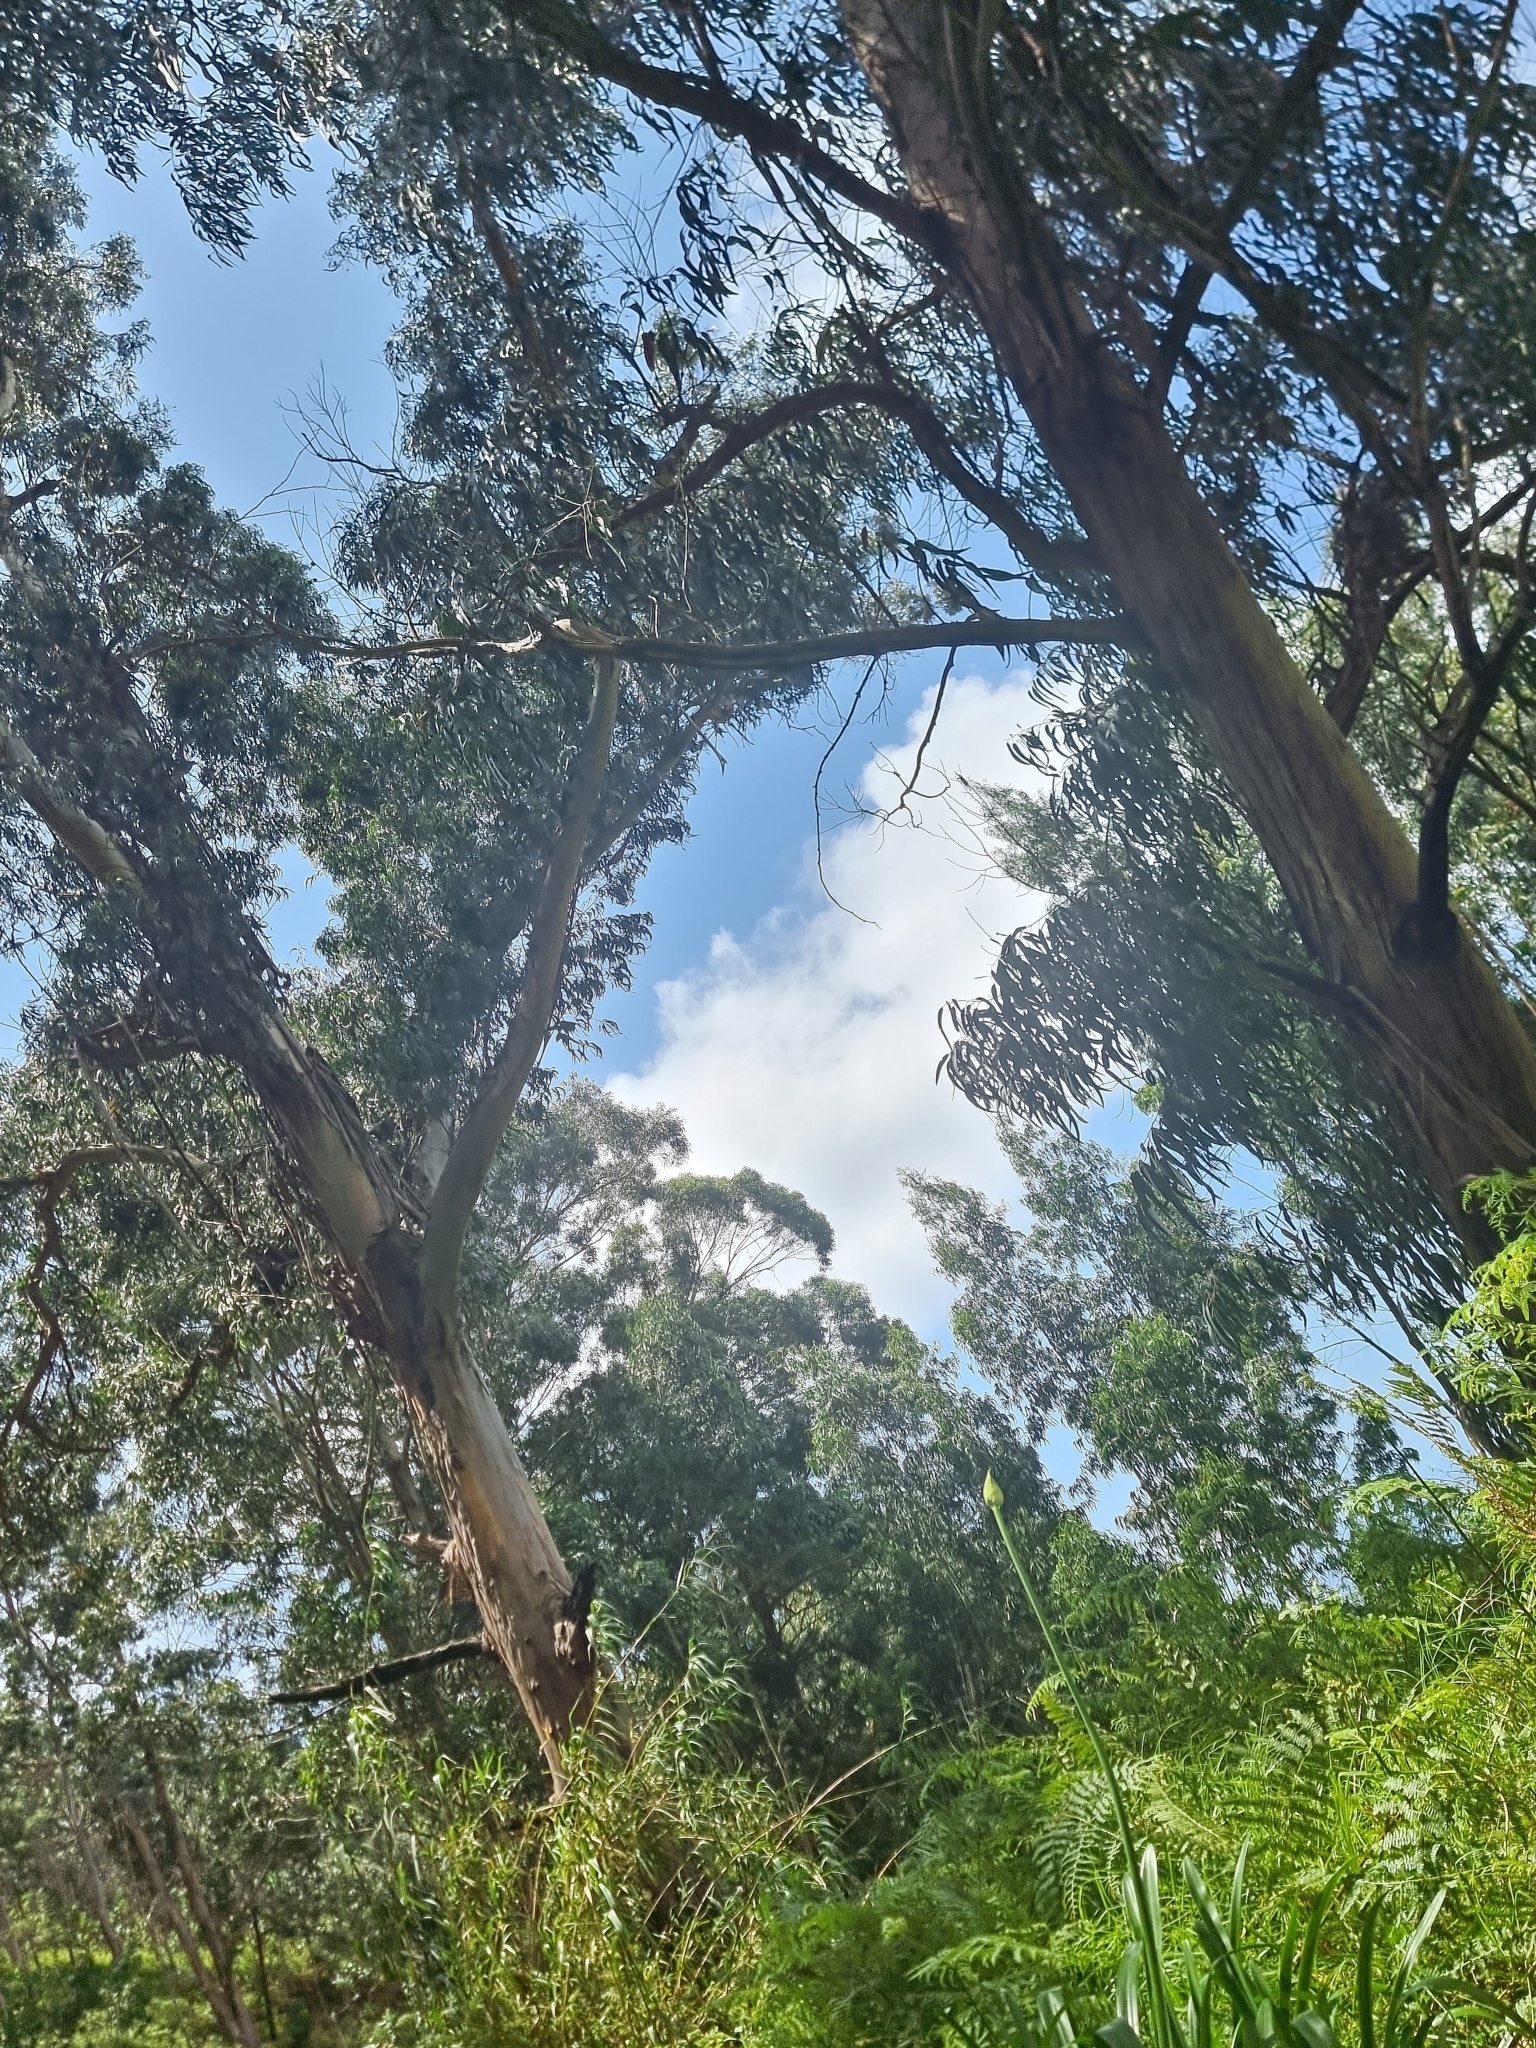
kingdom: Plantae
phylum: Tracheophyta
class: Magnoliopsida
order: Myrtales
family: Myrtaceae
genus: Eucalyptus
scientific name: Eucalyptus globulus
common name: Southern blue-gum
